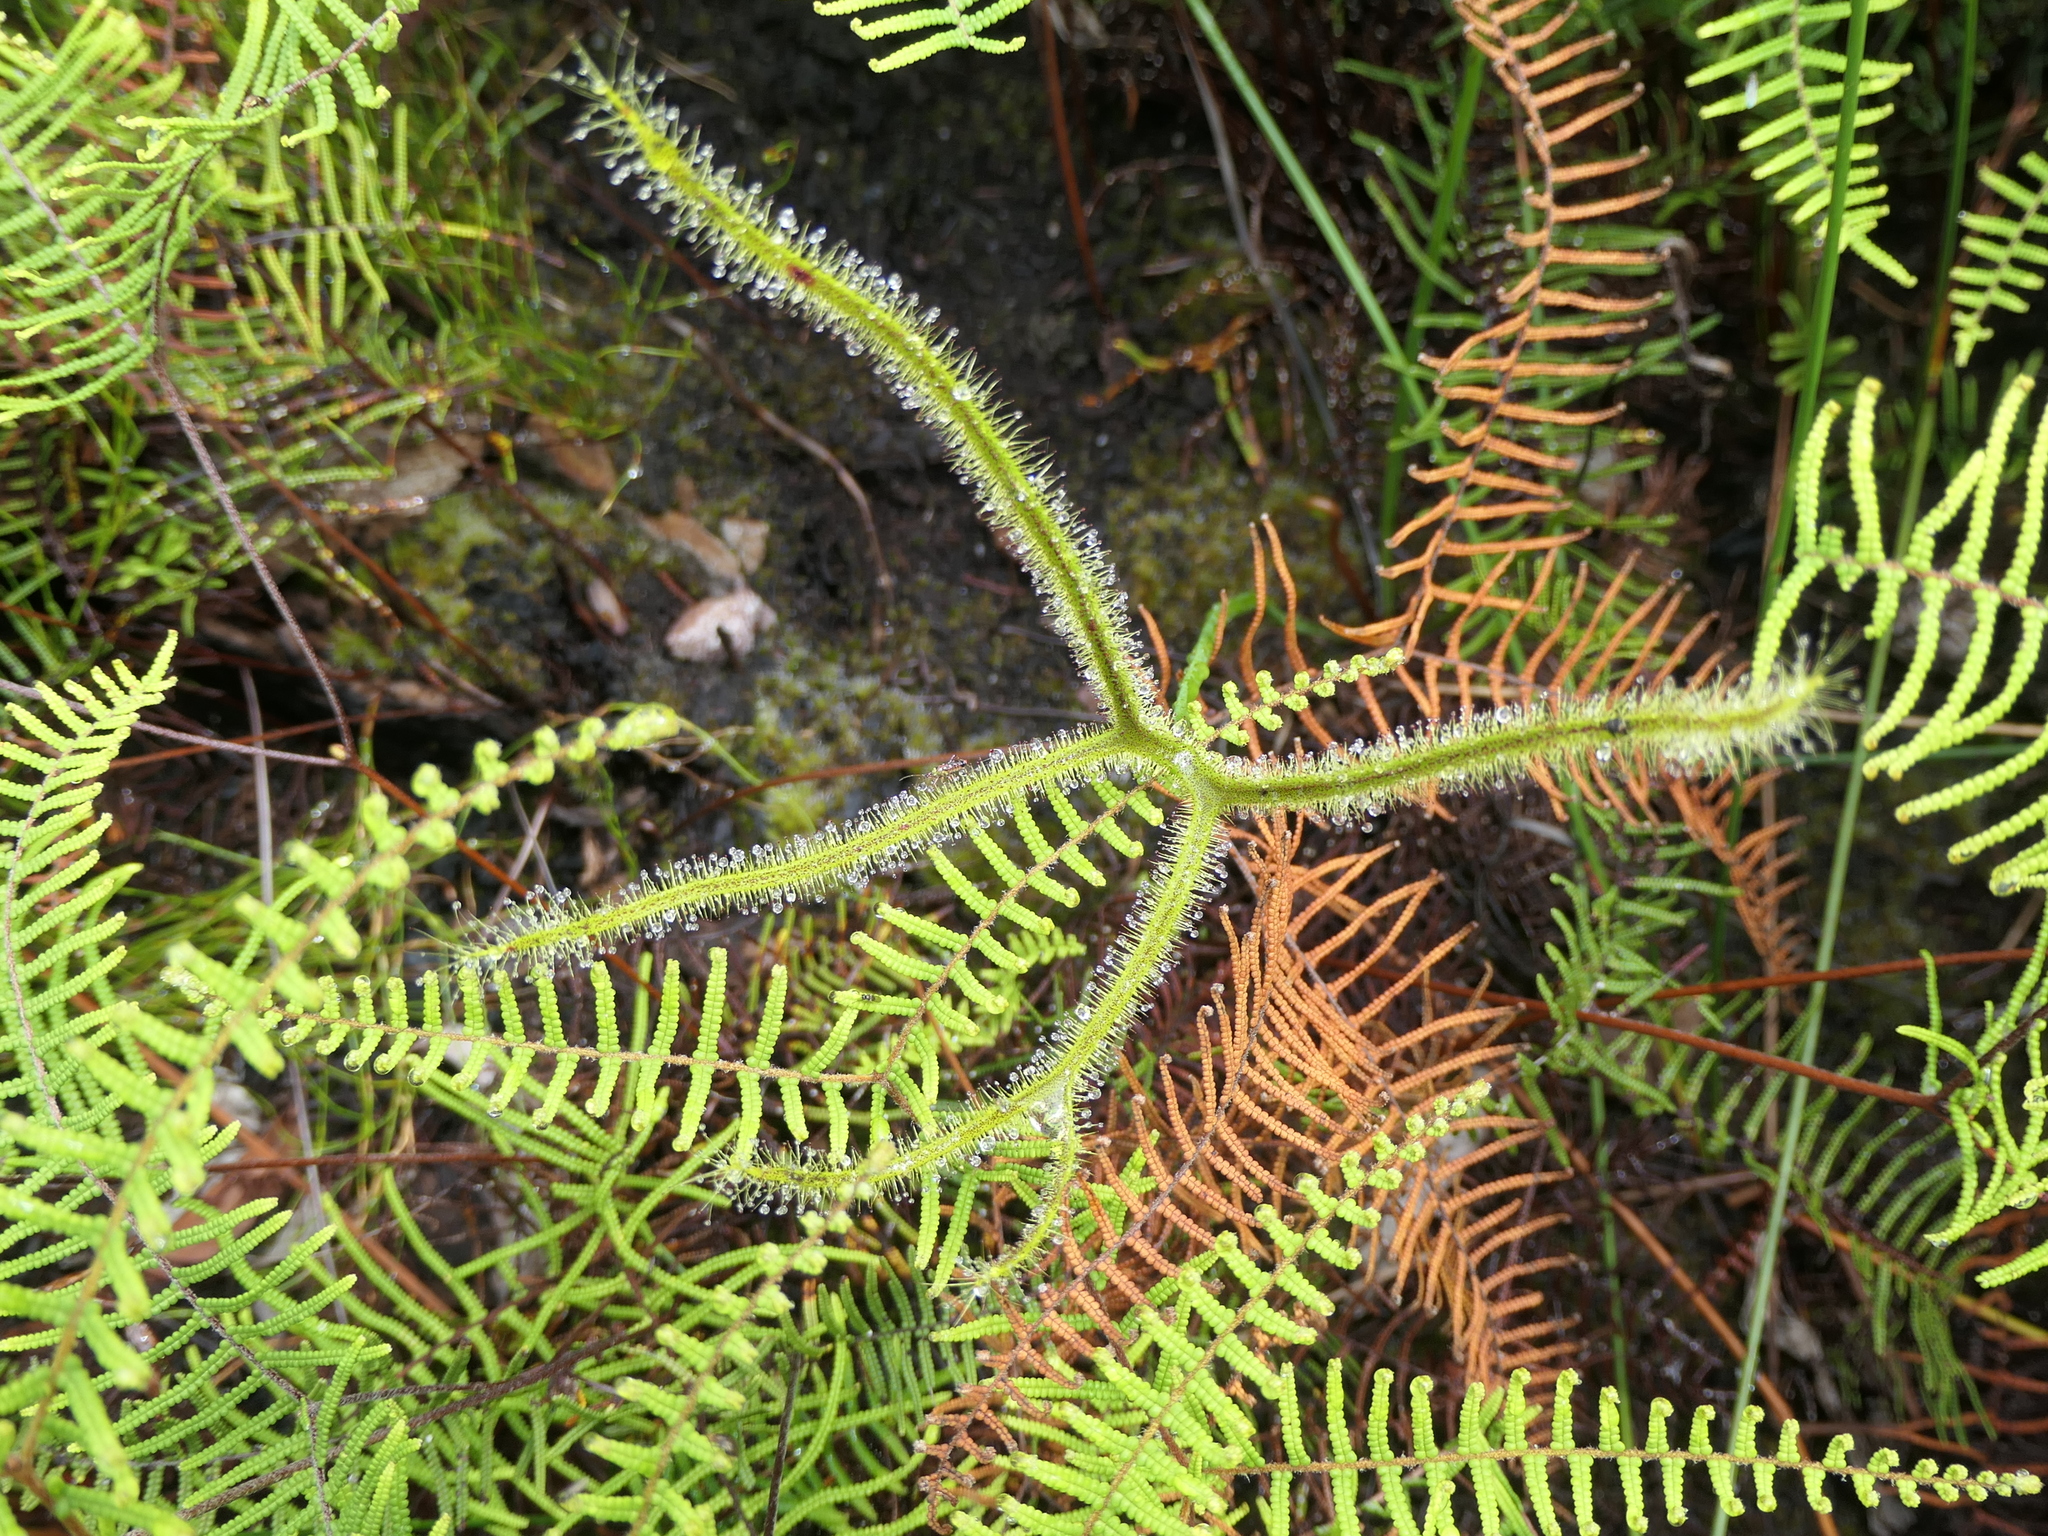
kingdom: Plantae
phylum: Tracheophyta
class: Magnoliopsida
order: Caryophyllales
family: Droseraceae
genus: Drosera
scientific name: Drosera binata
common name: Forked sundew
